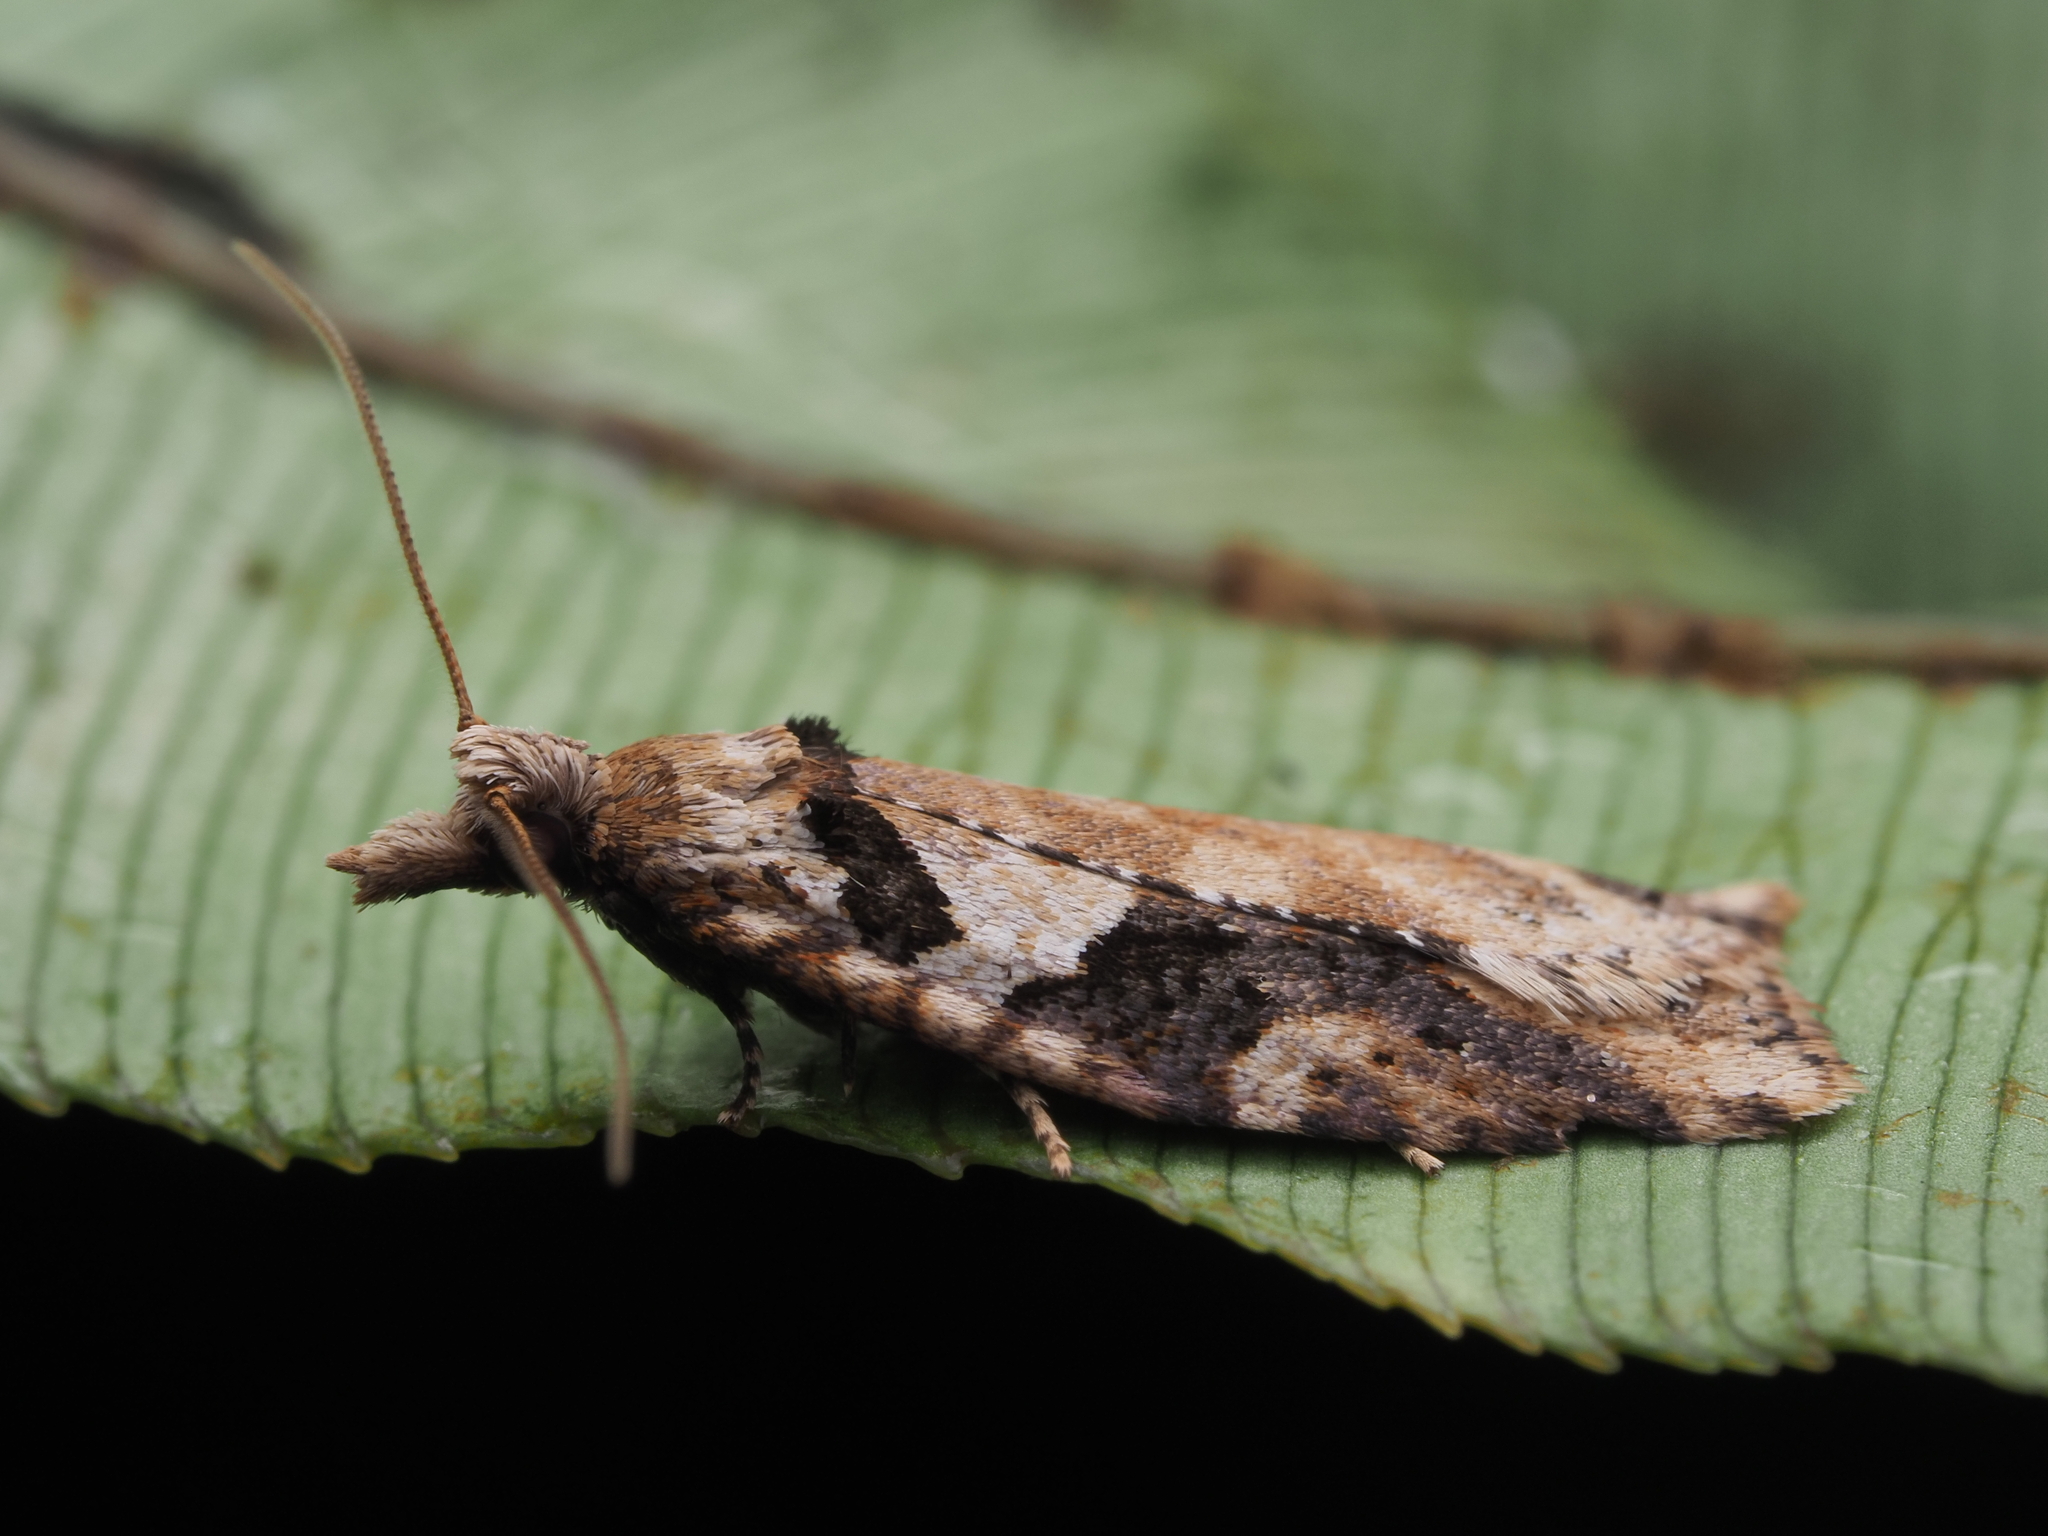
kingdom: Animalia
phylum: Arthropoda
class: Insecta
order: Lepidoptera
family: Tortricidae
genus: Ctenopseustis
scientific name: Ctenopseustis obliquana
